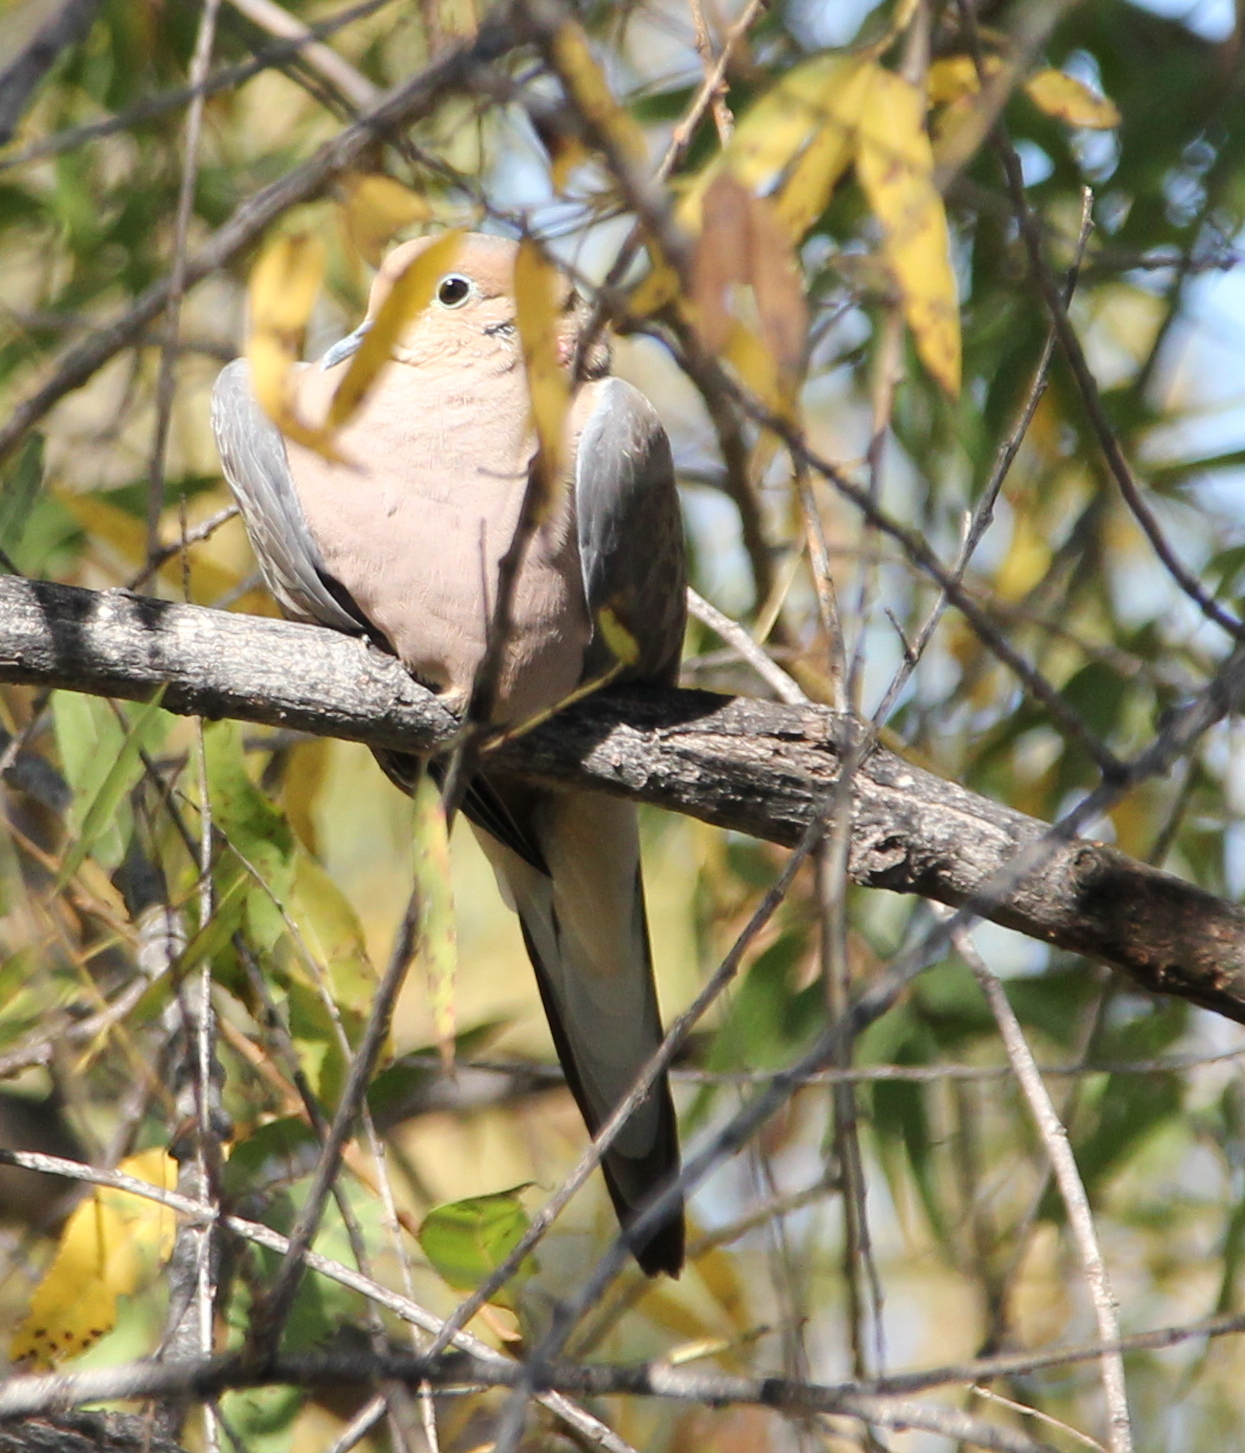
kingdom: Animalia
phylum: Chordata
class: Aves
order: Columbiformes
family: Columbidae
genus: Zenaida
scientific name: Zenaida macroura
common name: Mourning dove
